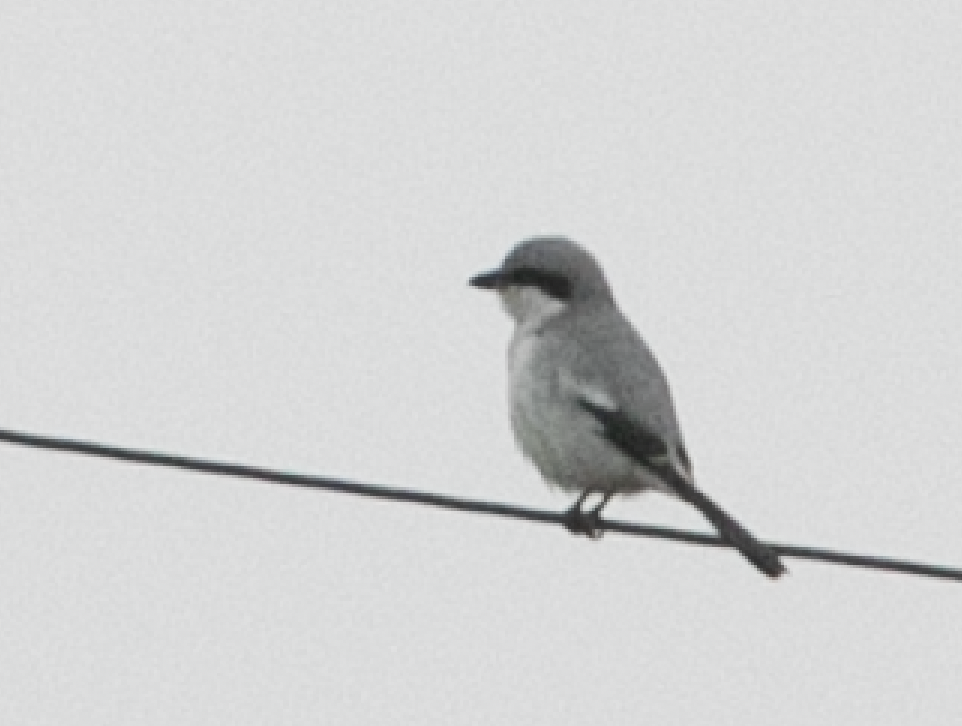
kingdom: Animalia
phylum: Chordata
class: Aves
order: Passeriformes
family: Laniidae
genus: Lanius
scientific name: Lanius excubitor
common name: Great grey shrike
